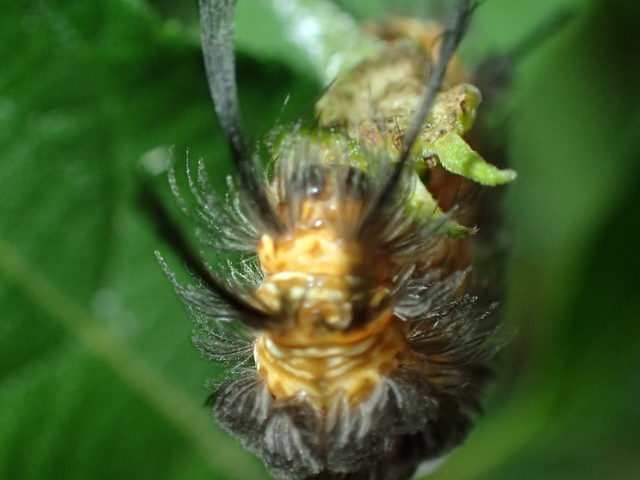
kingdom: Animalia
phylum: Arthropoda
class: Insecta
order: Lepidoptera
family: Erebidae
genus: Syntomeida
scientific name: Syntomeida ipomoeae
